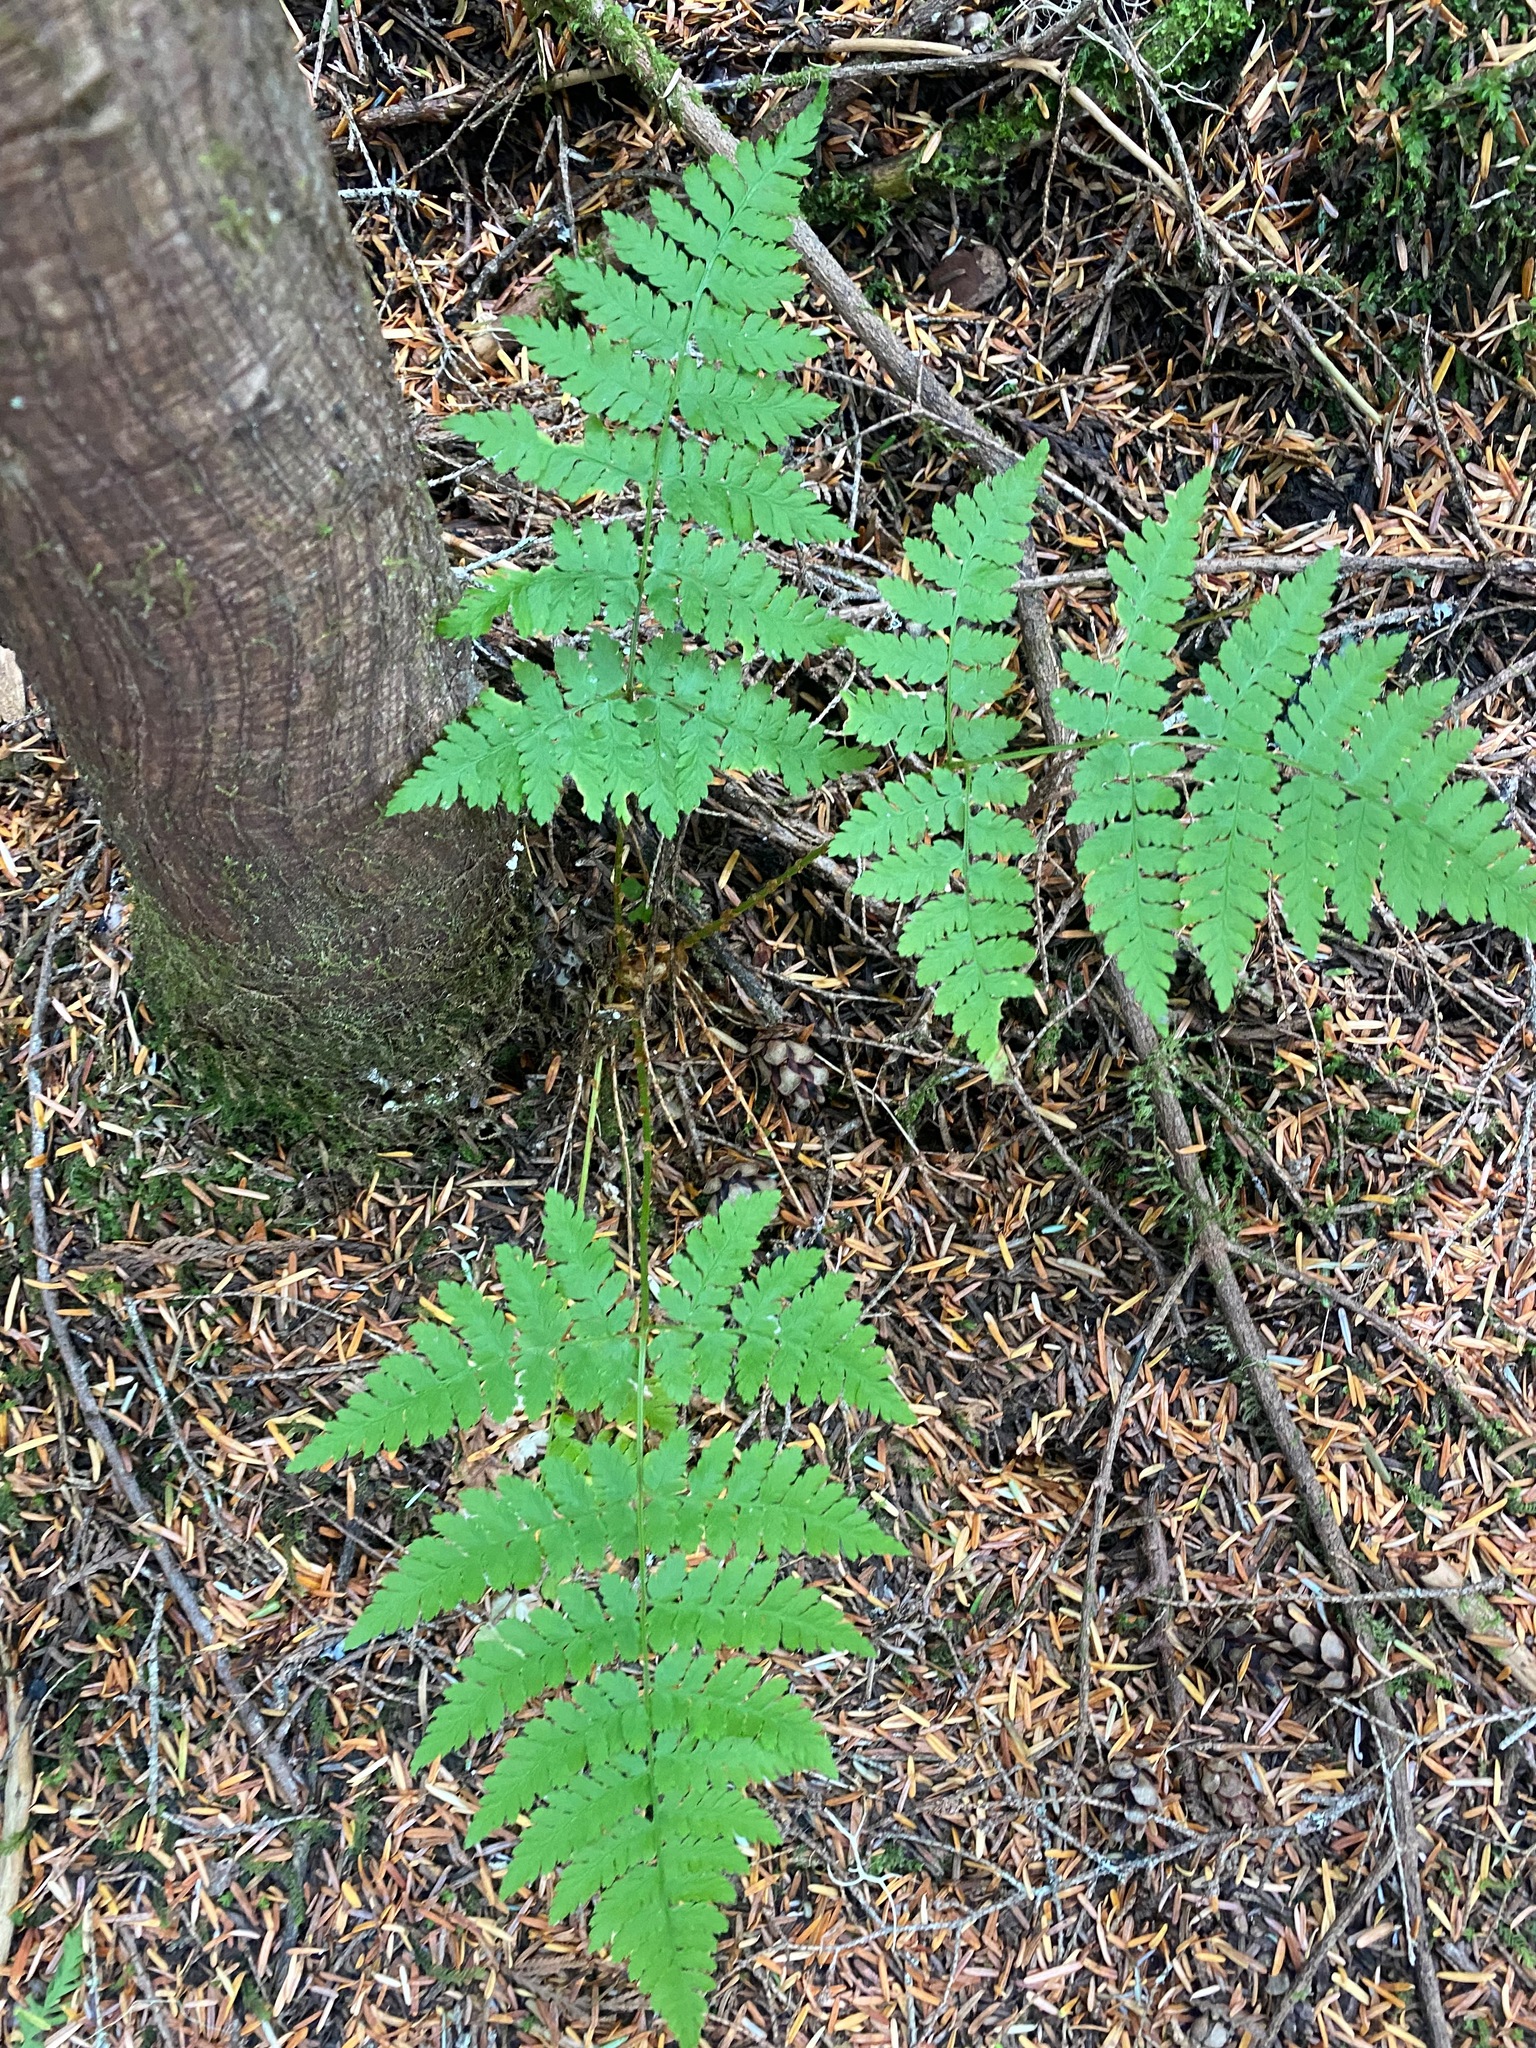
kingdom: Plantae
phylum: Tracheophyta
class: Polypodiopsida
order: Polypodiales
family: Dryopteridaceae
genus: Dryopteris
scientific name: Dryopteris expansa
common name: Northern buckler fern
